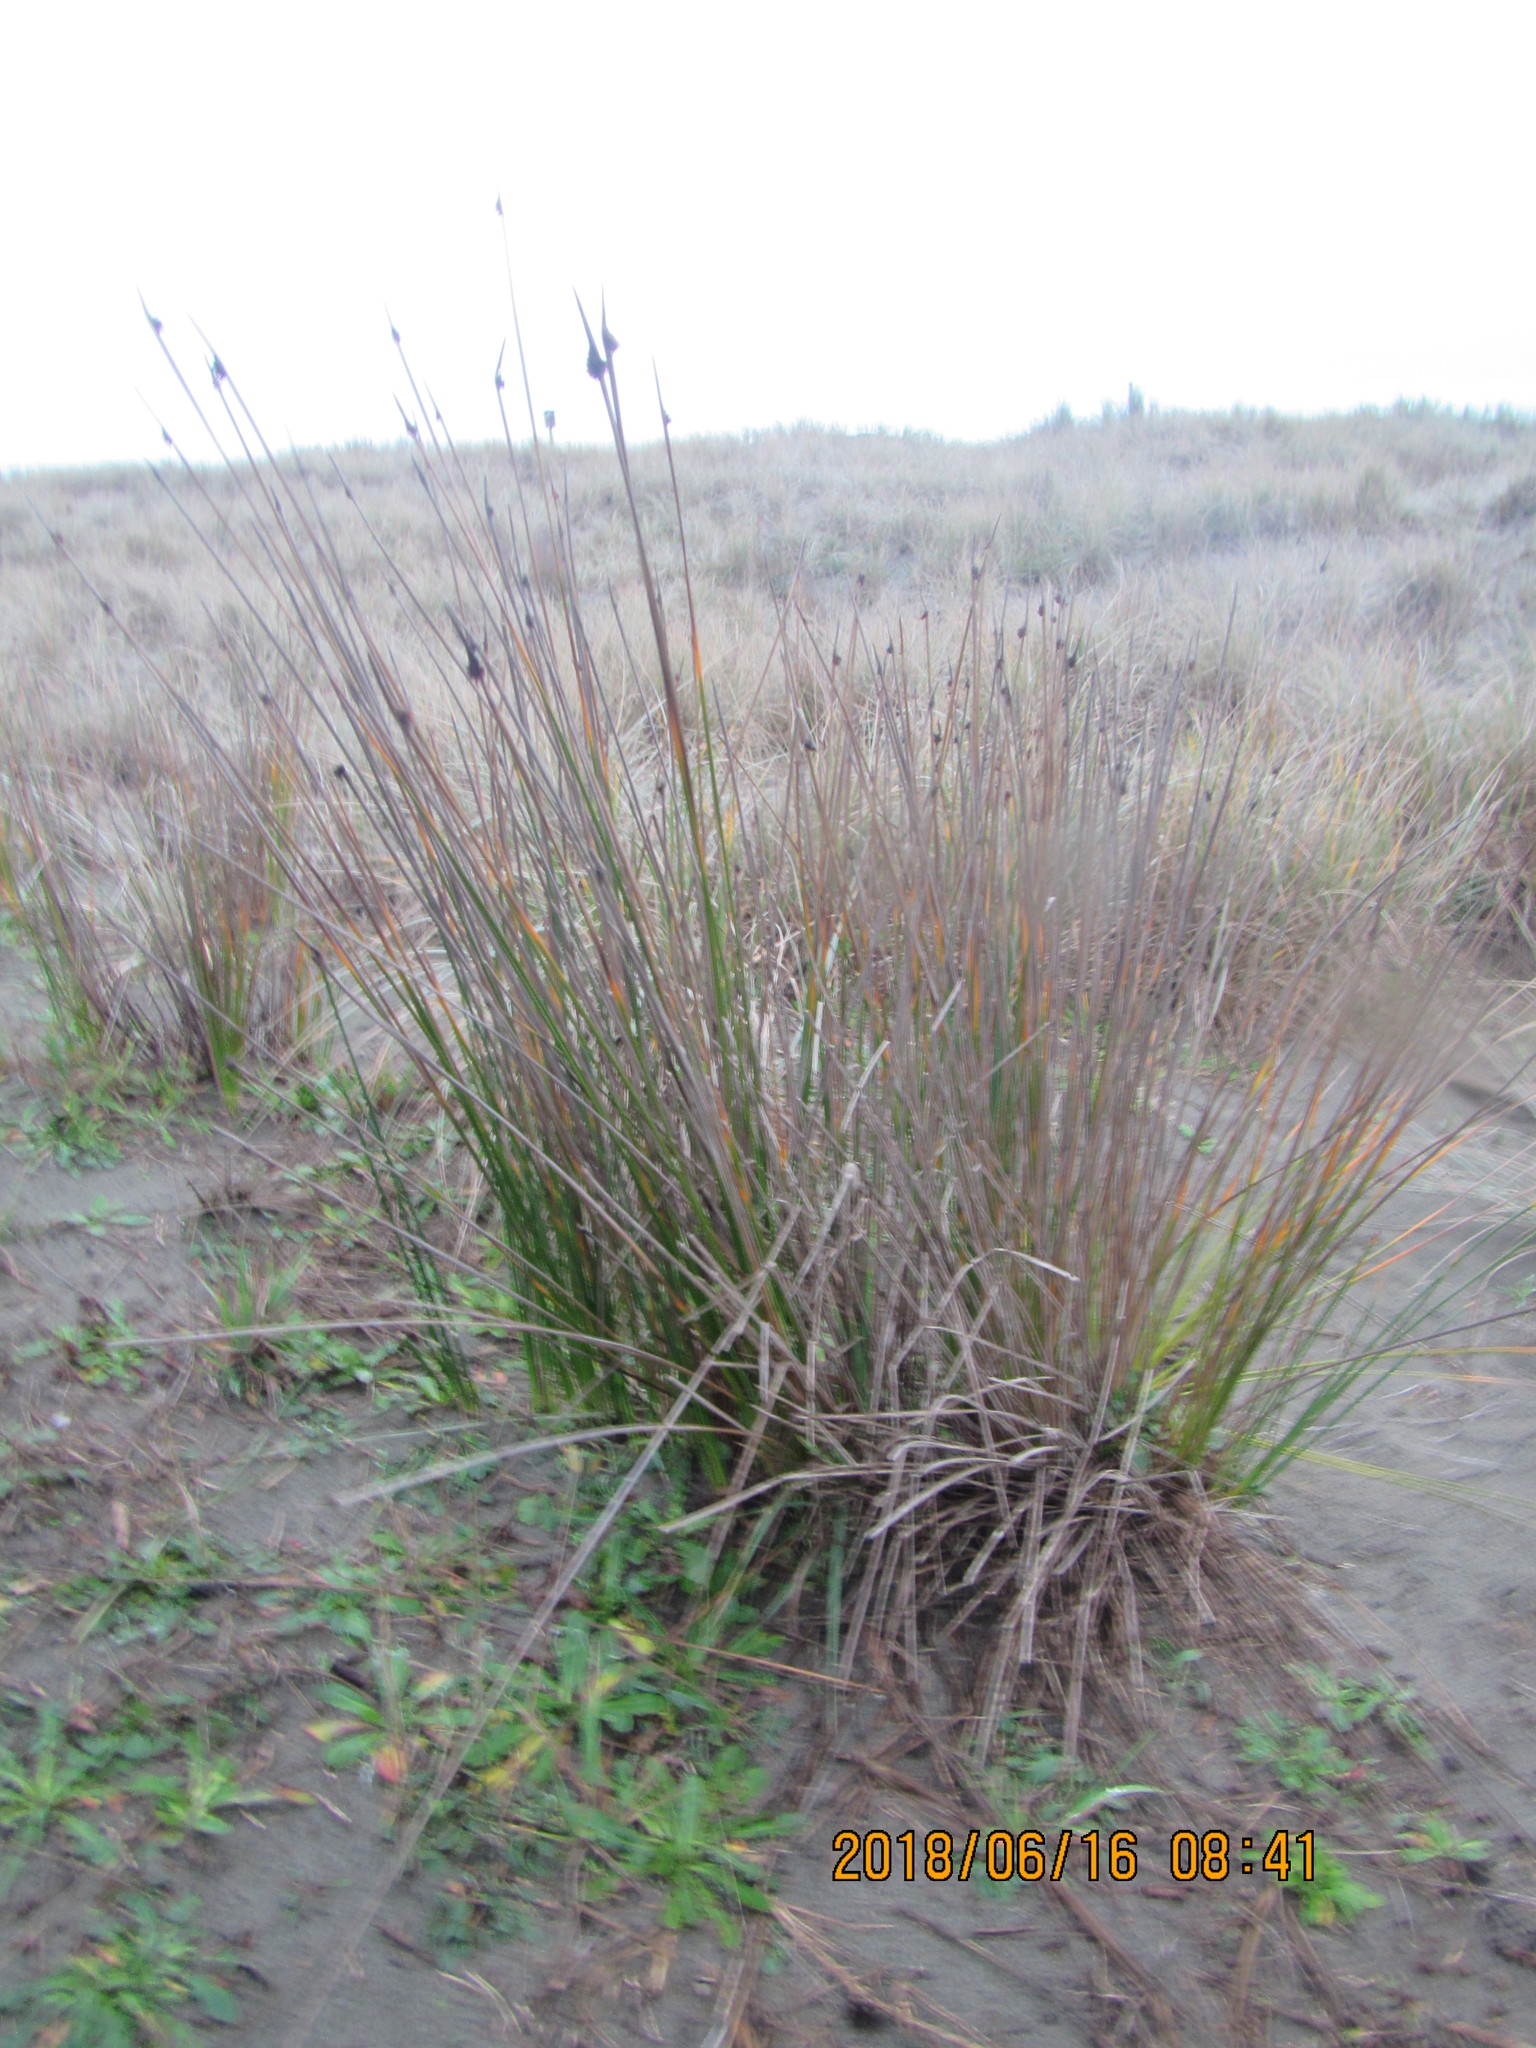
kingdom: Plantae
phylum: Tracheophyta
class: Liliopsida
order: Poales
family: Cyperaceae
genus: Ficinia
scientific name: Ficinia nodosa
